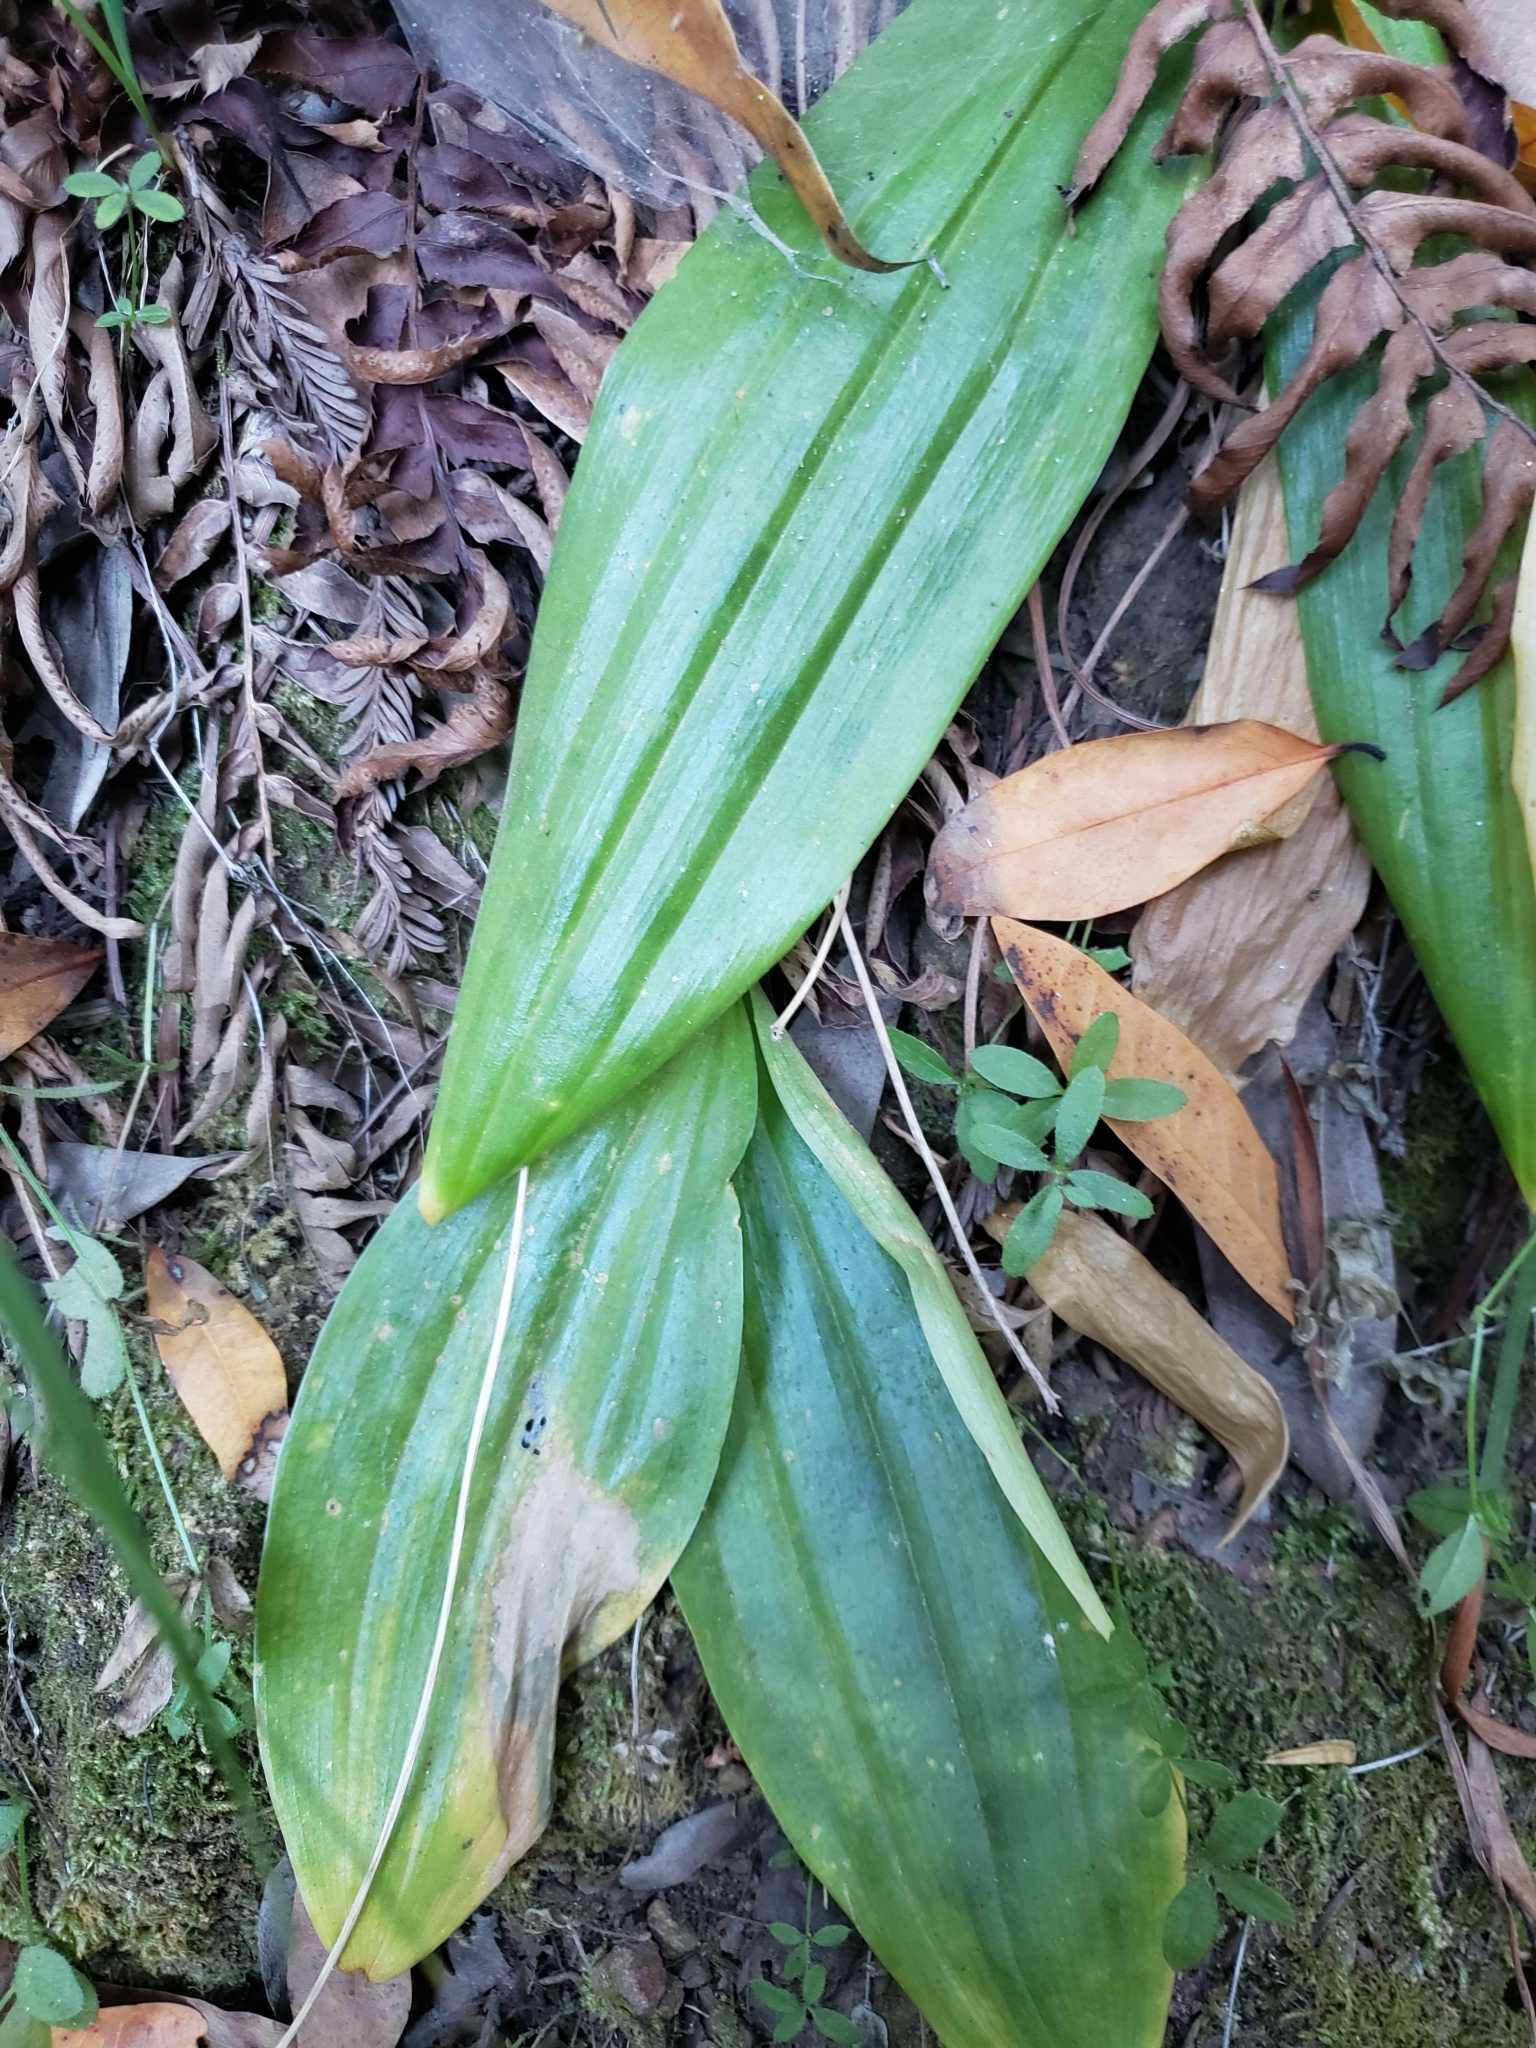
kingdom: Plantae
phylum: Tracheophyta
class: Liliopsida
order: Liliales
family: Liliaceae
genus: Scoliopus
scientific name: Scoliopus bigelovii
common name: Foetid adder's-tongue
